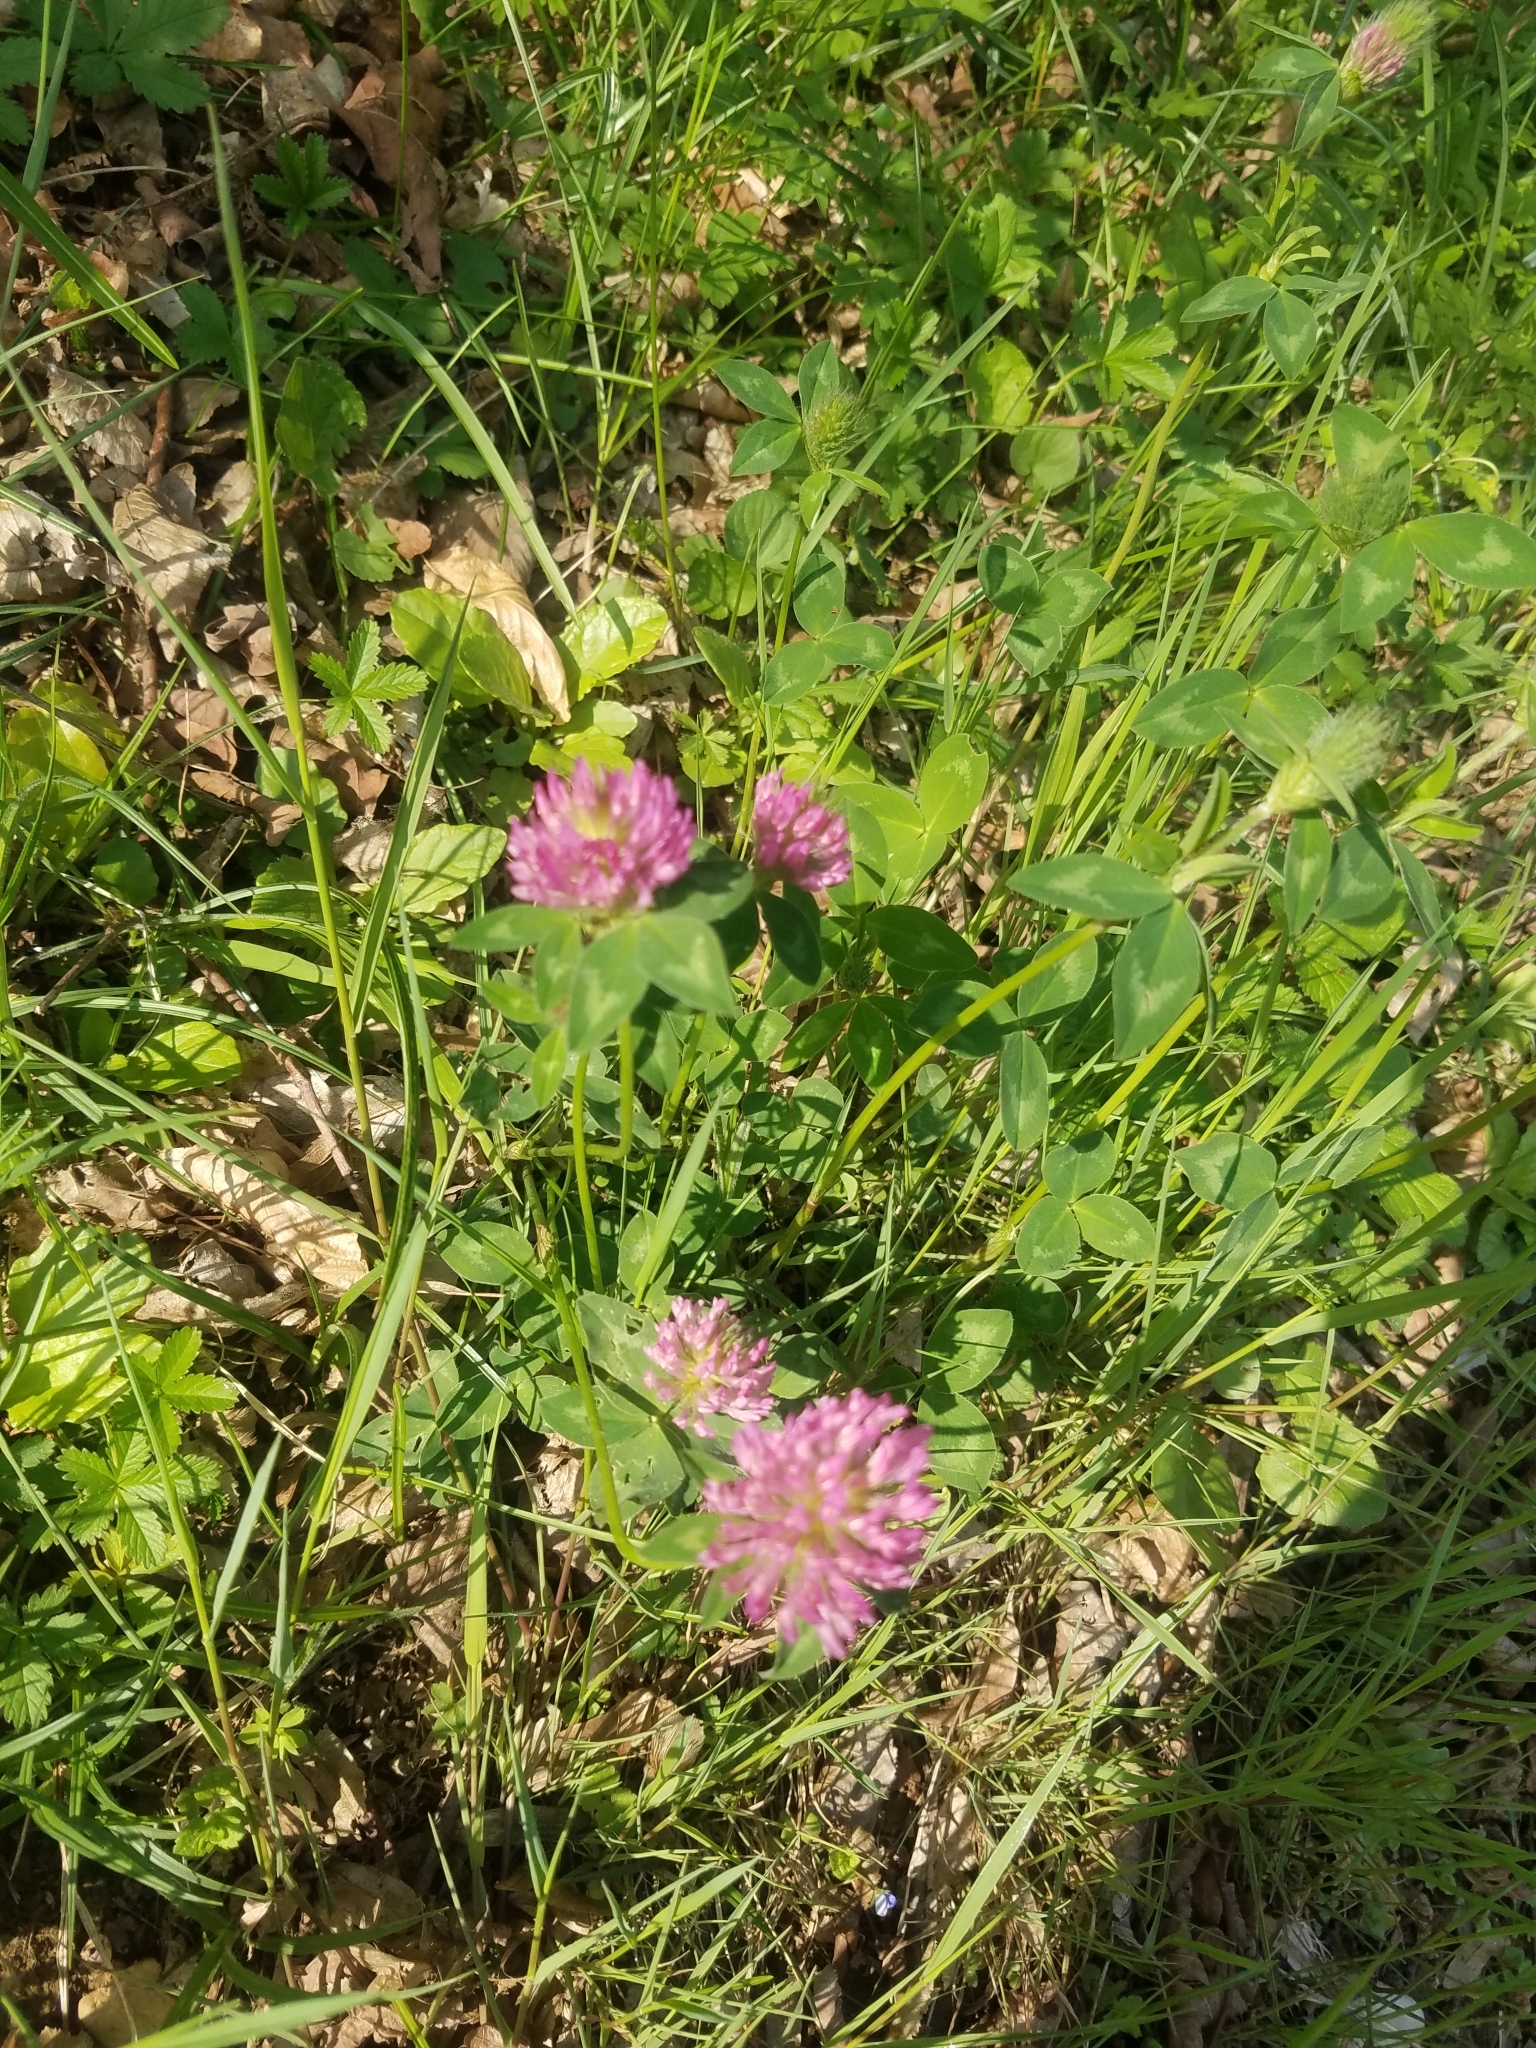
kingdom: Plantae
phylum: Tracheophyta
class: Magnoliopsida
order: Fabales
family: Fabaceae
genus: Trifolium
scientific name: Trifolium pratense
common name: Red clover
